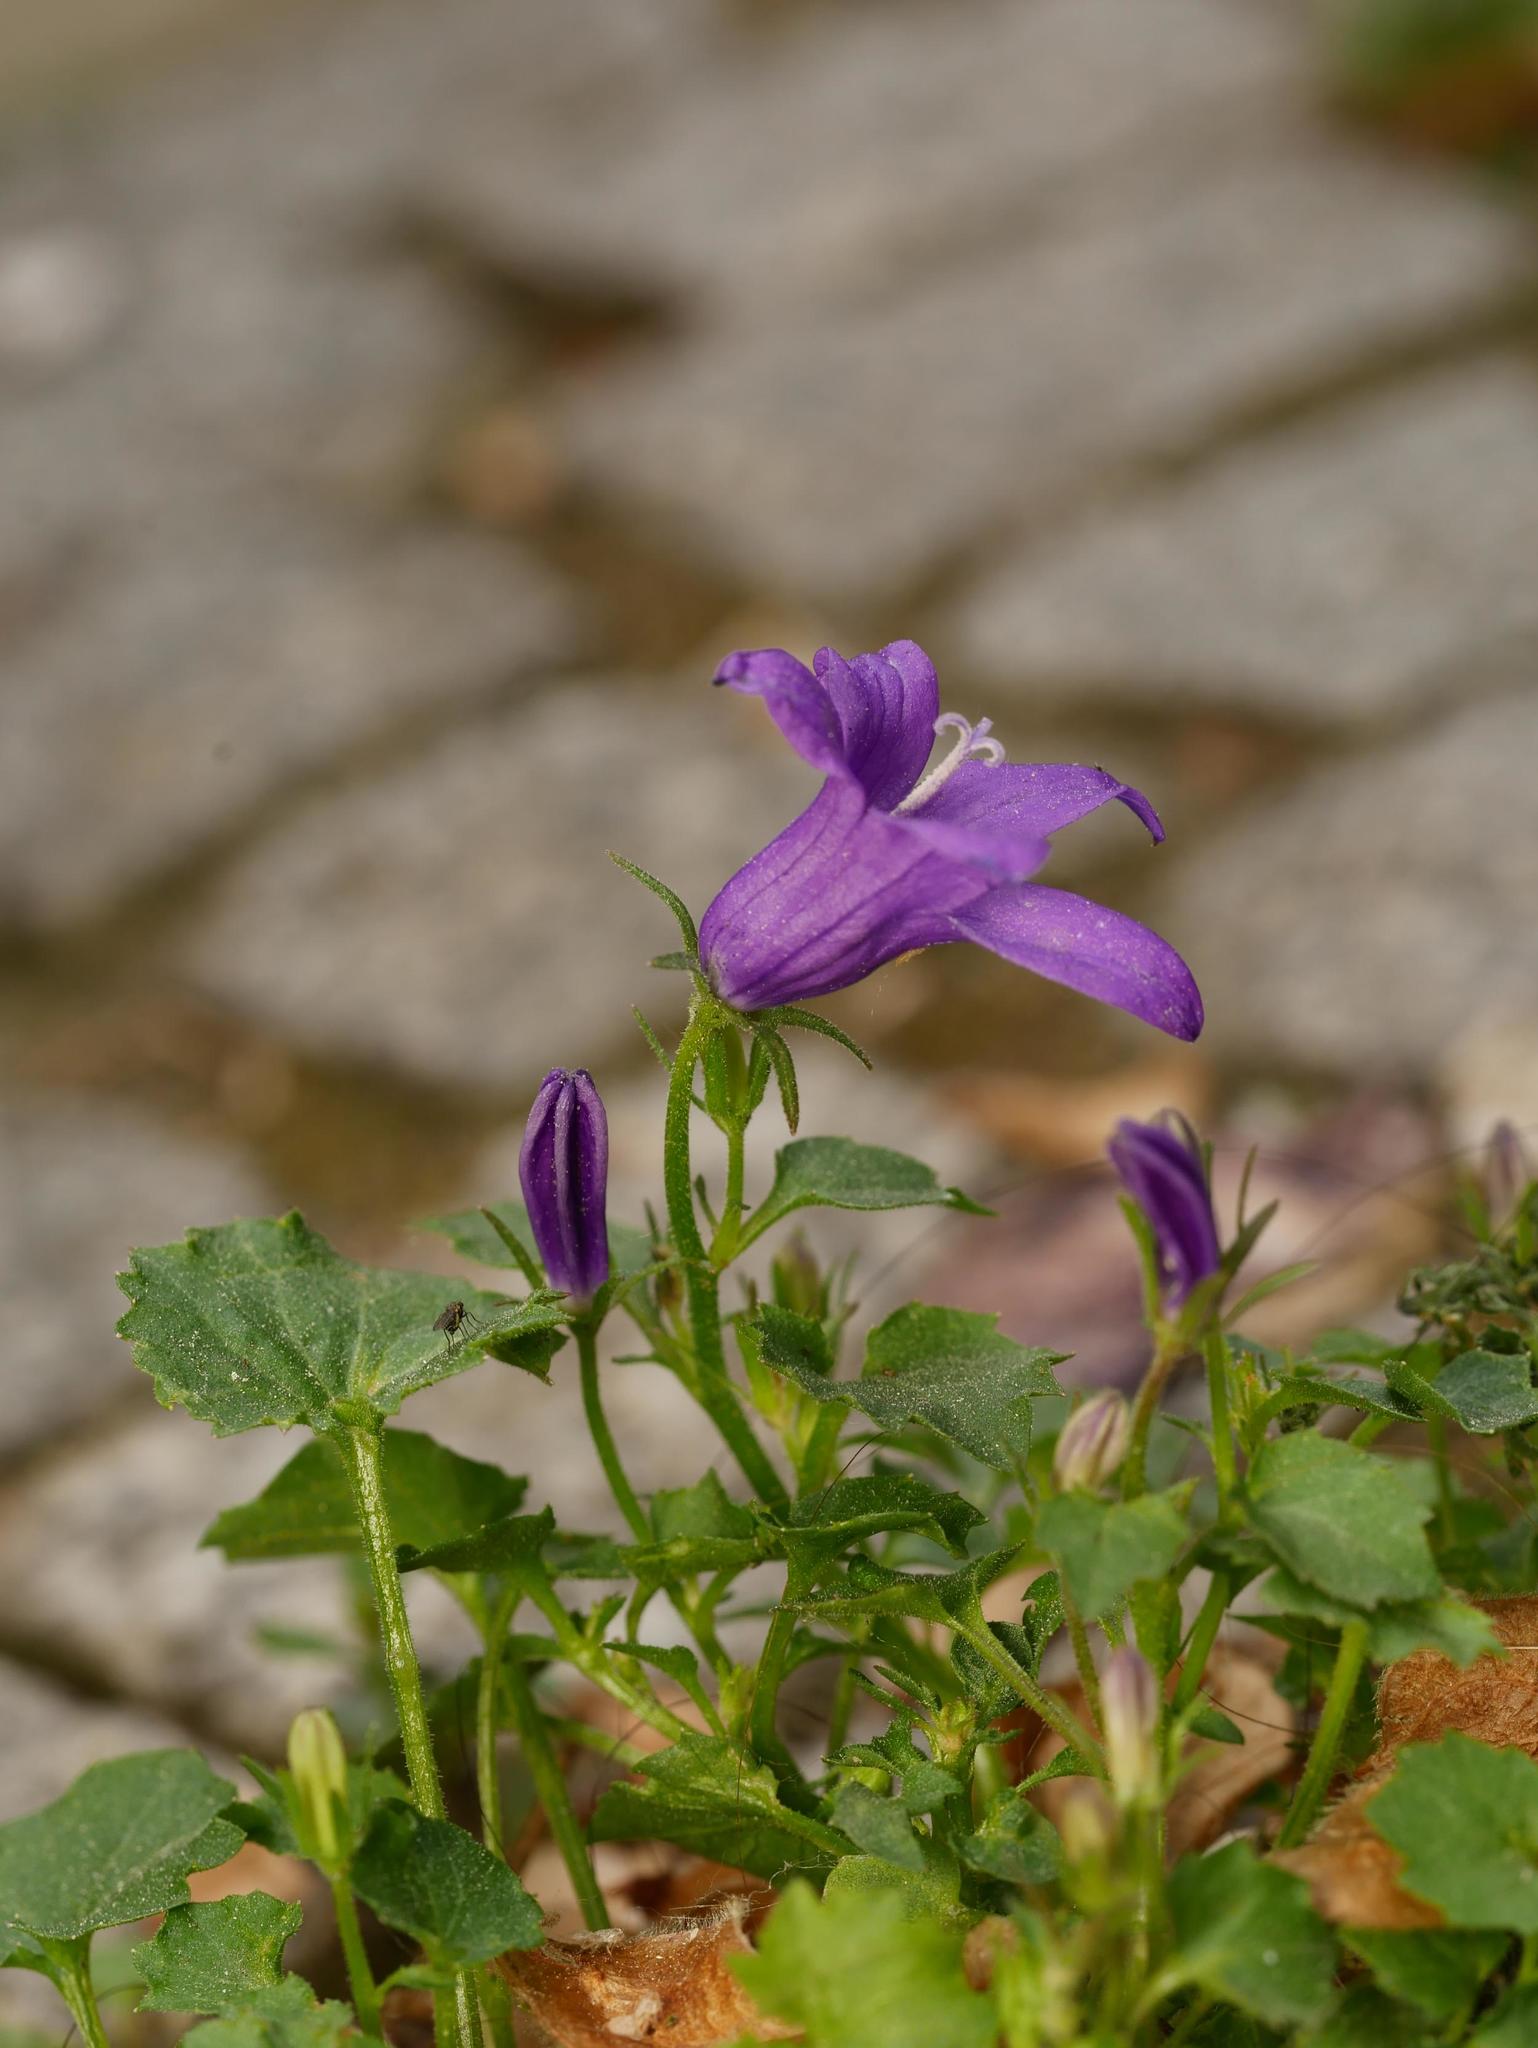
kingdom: Plantae
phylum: Tracheophyta
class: Magnoliopsida
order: Asterales
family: Campanulaceae
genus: Campanula
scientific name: Campanula poscharskyana
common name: Trailing bellflower
